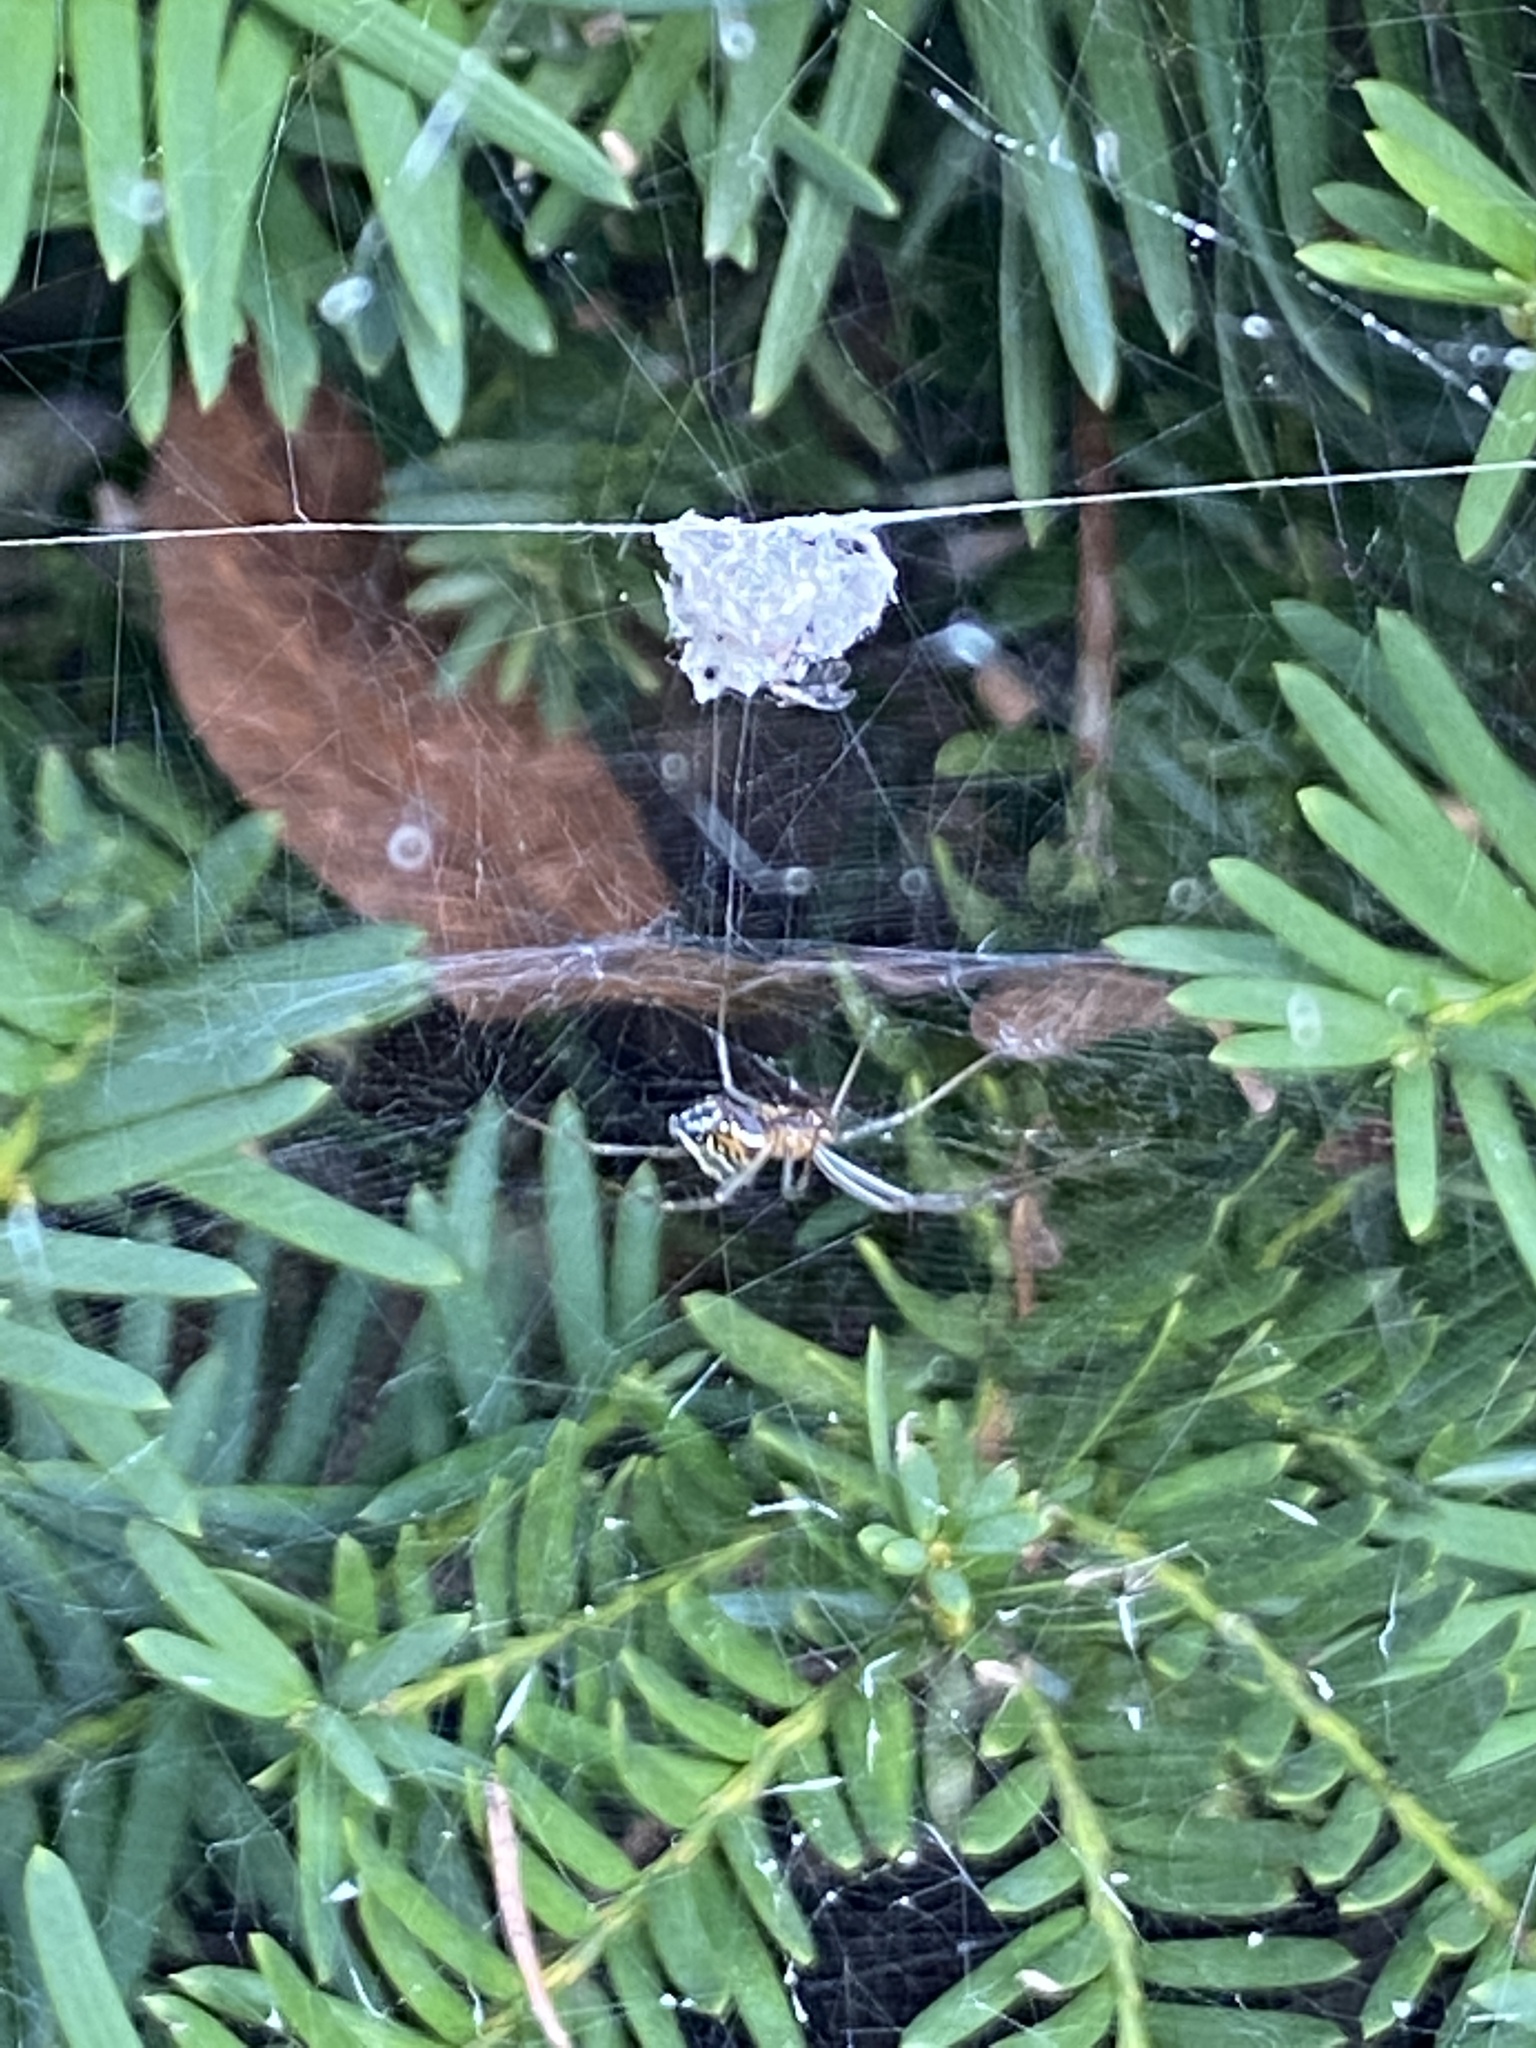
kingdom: Animalia
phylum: Arthropoda
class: Arachnida
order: Araneae
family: Araneidae
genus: Mecynogea
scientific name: Mecynogea lemniscata
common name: Orb weavers
